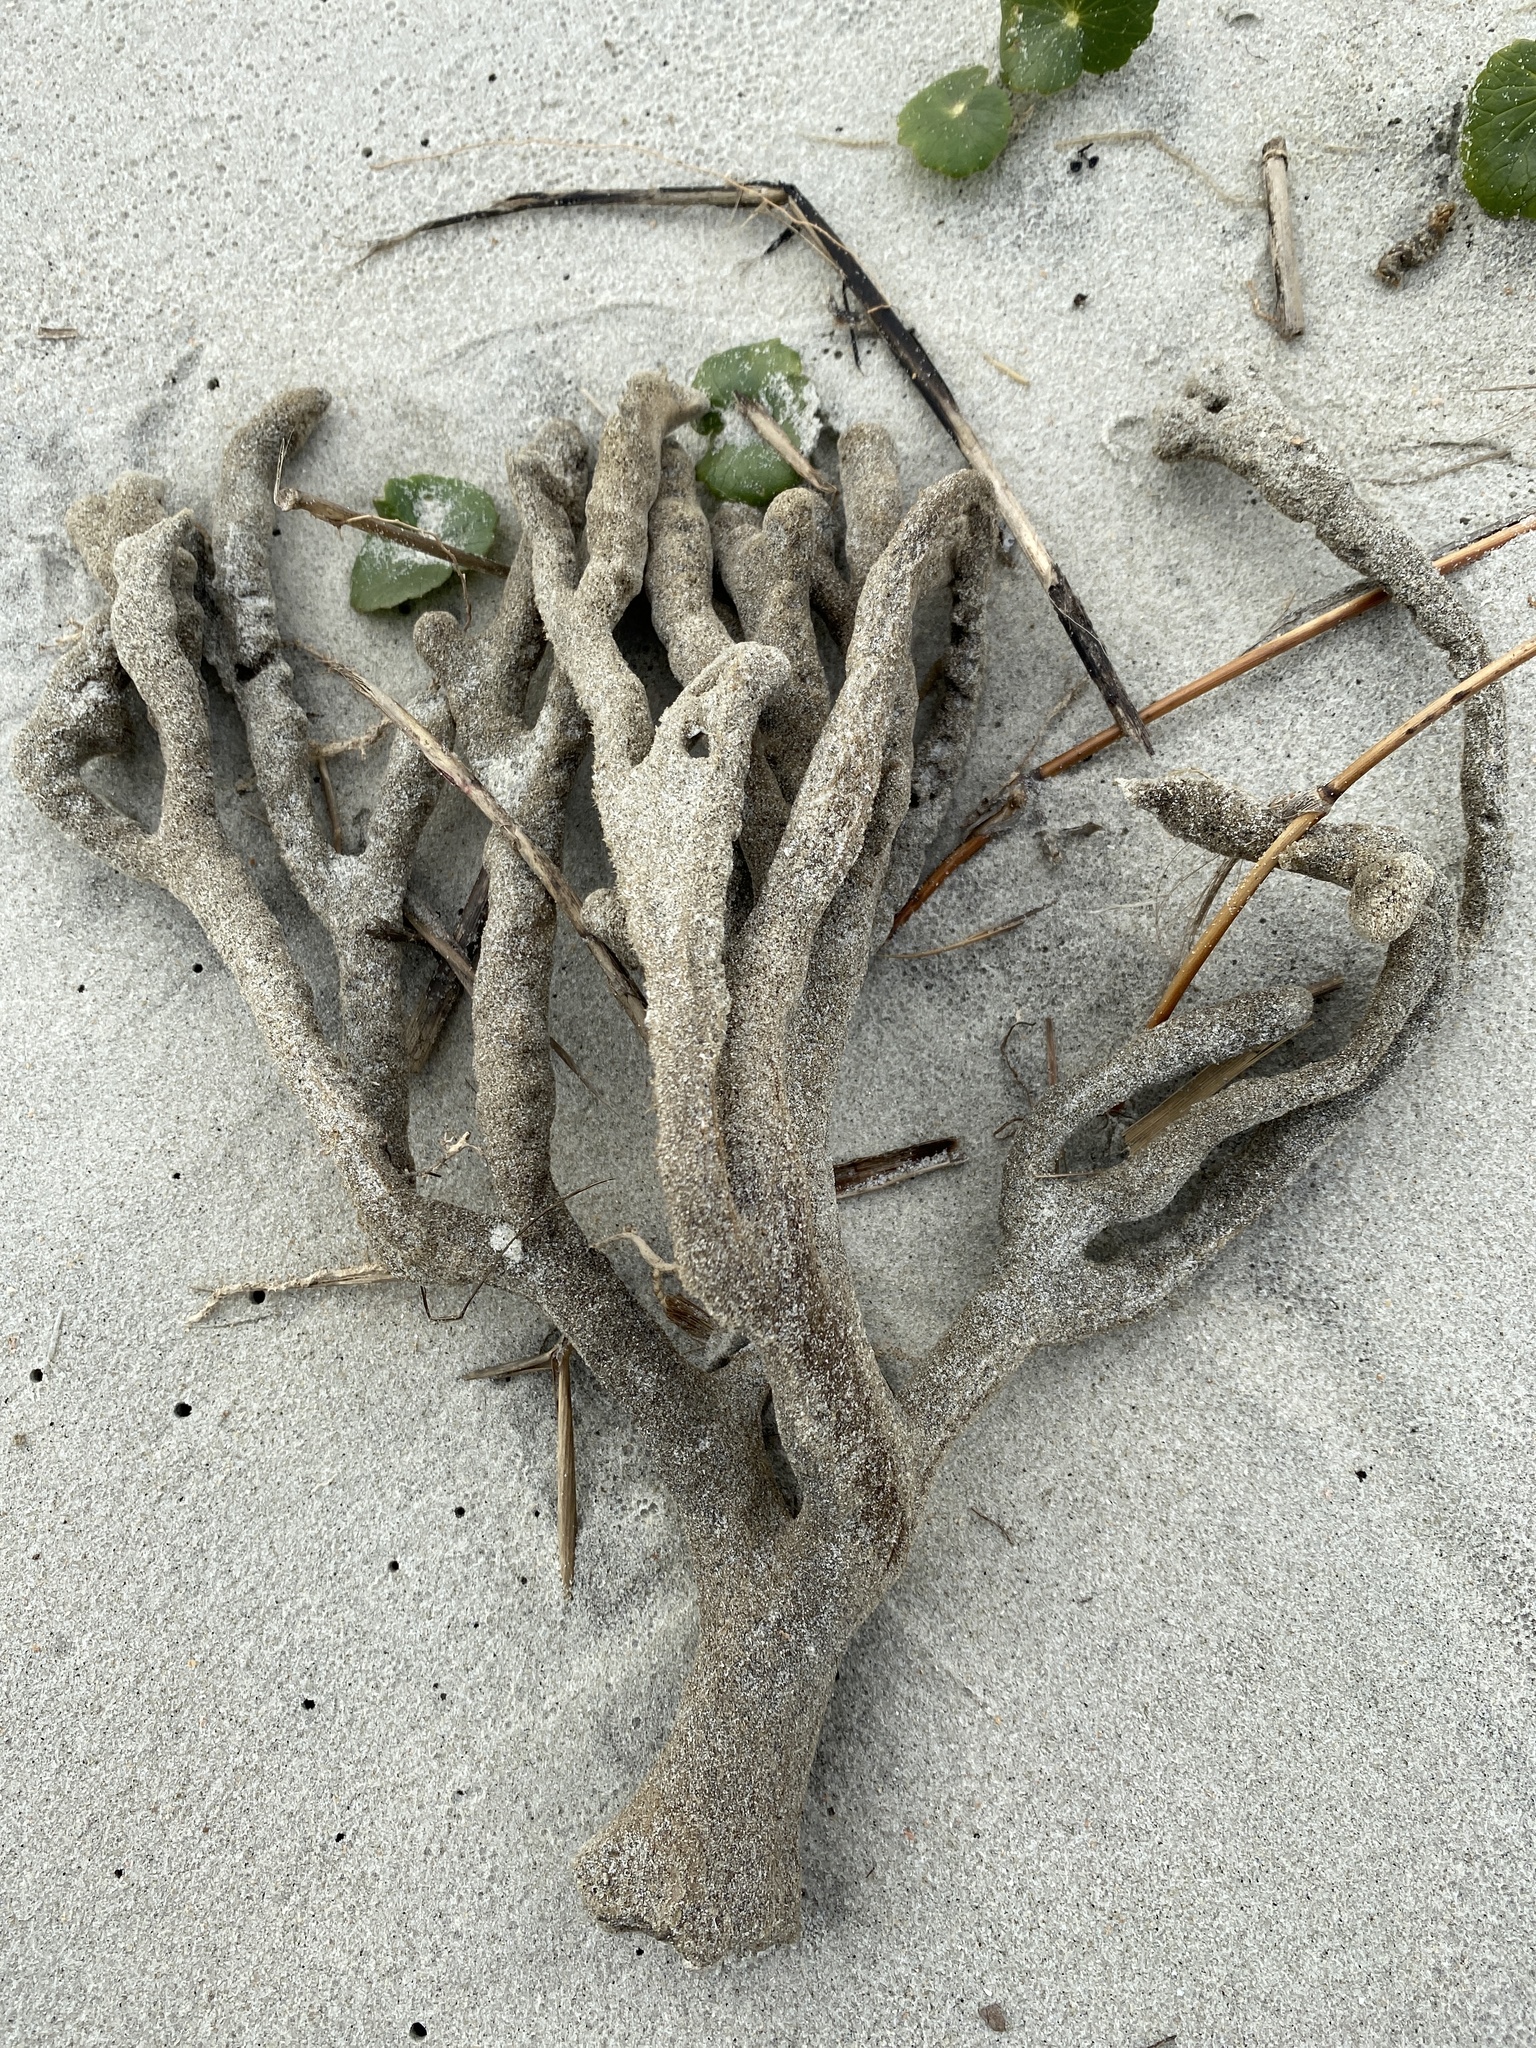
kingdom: Animalia
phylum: Porifera
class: Demospongiae
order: Haplosclerida
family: Chalinidae
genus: Haliclona
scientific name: Haliclona oculata
